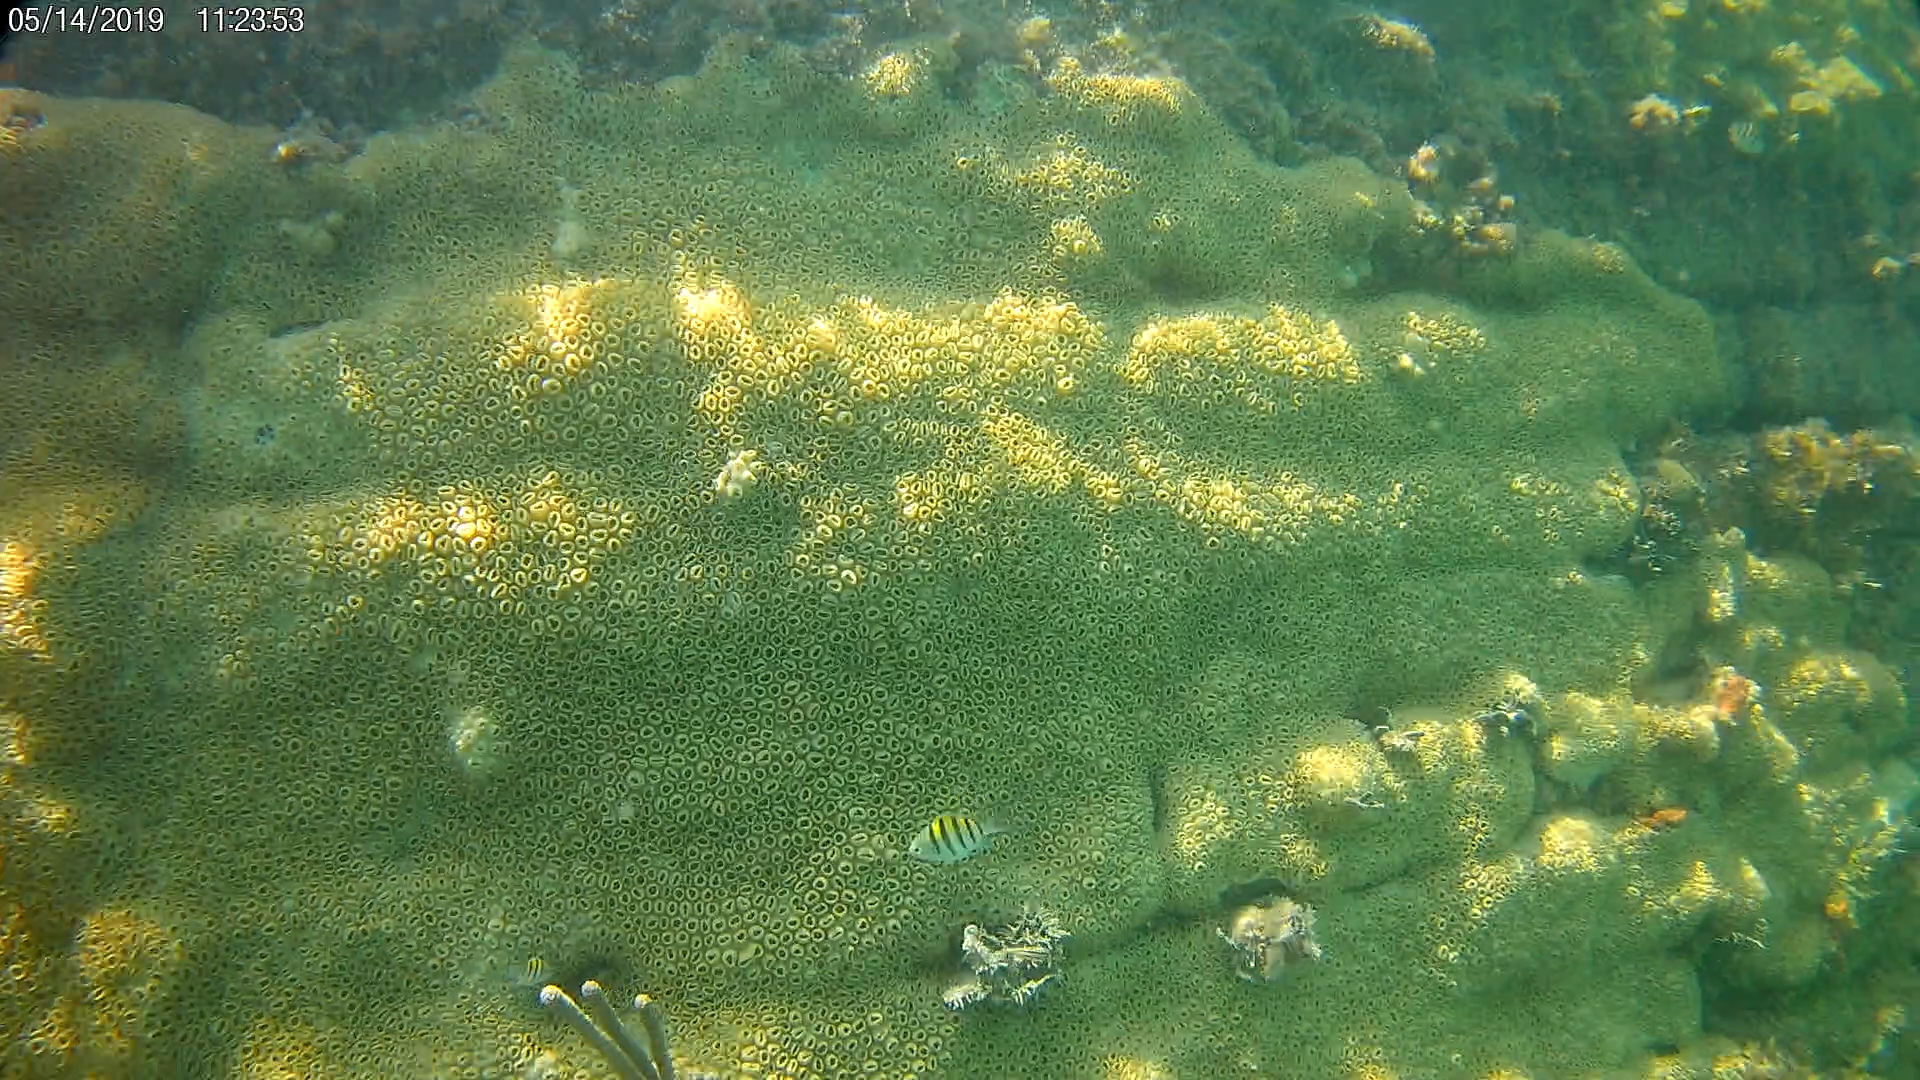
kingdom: Animalia
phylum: Chordata
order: Perciformes
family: Pomacentridae
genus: Abudefduf
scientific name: Abudefduf saxatilis
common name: Sergeant major
